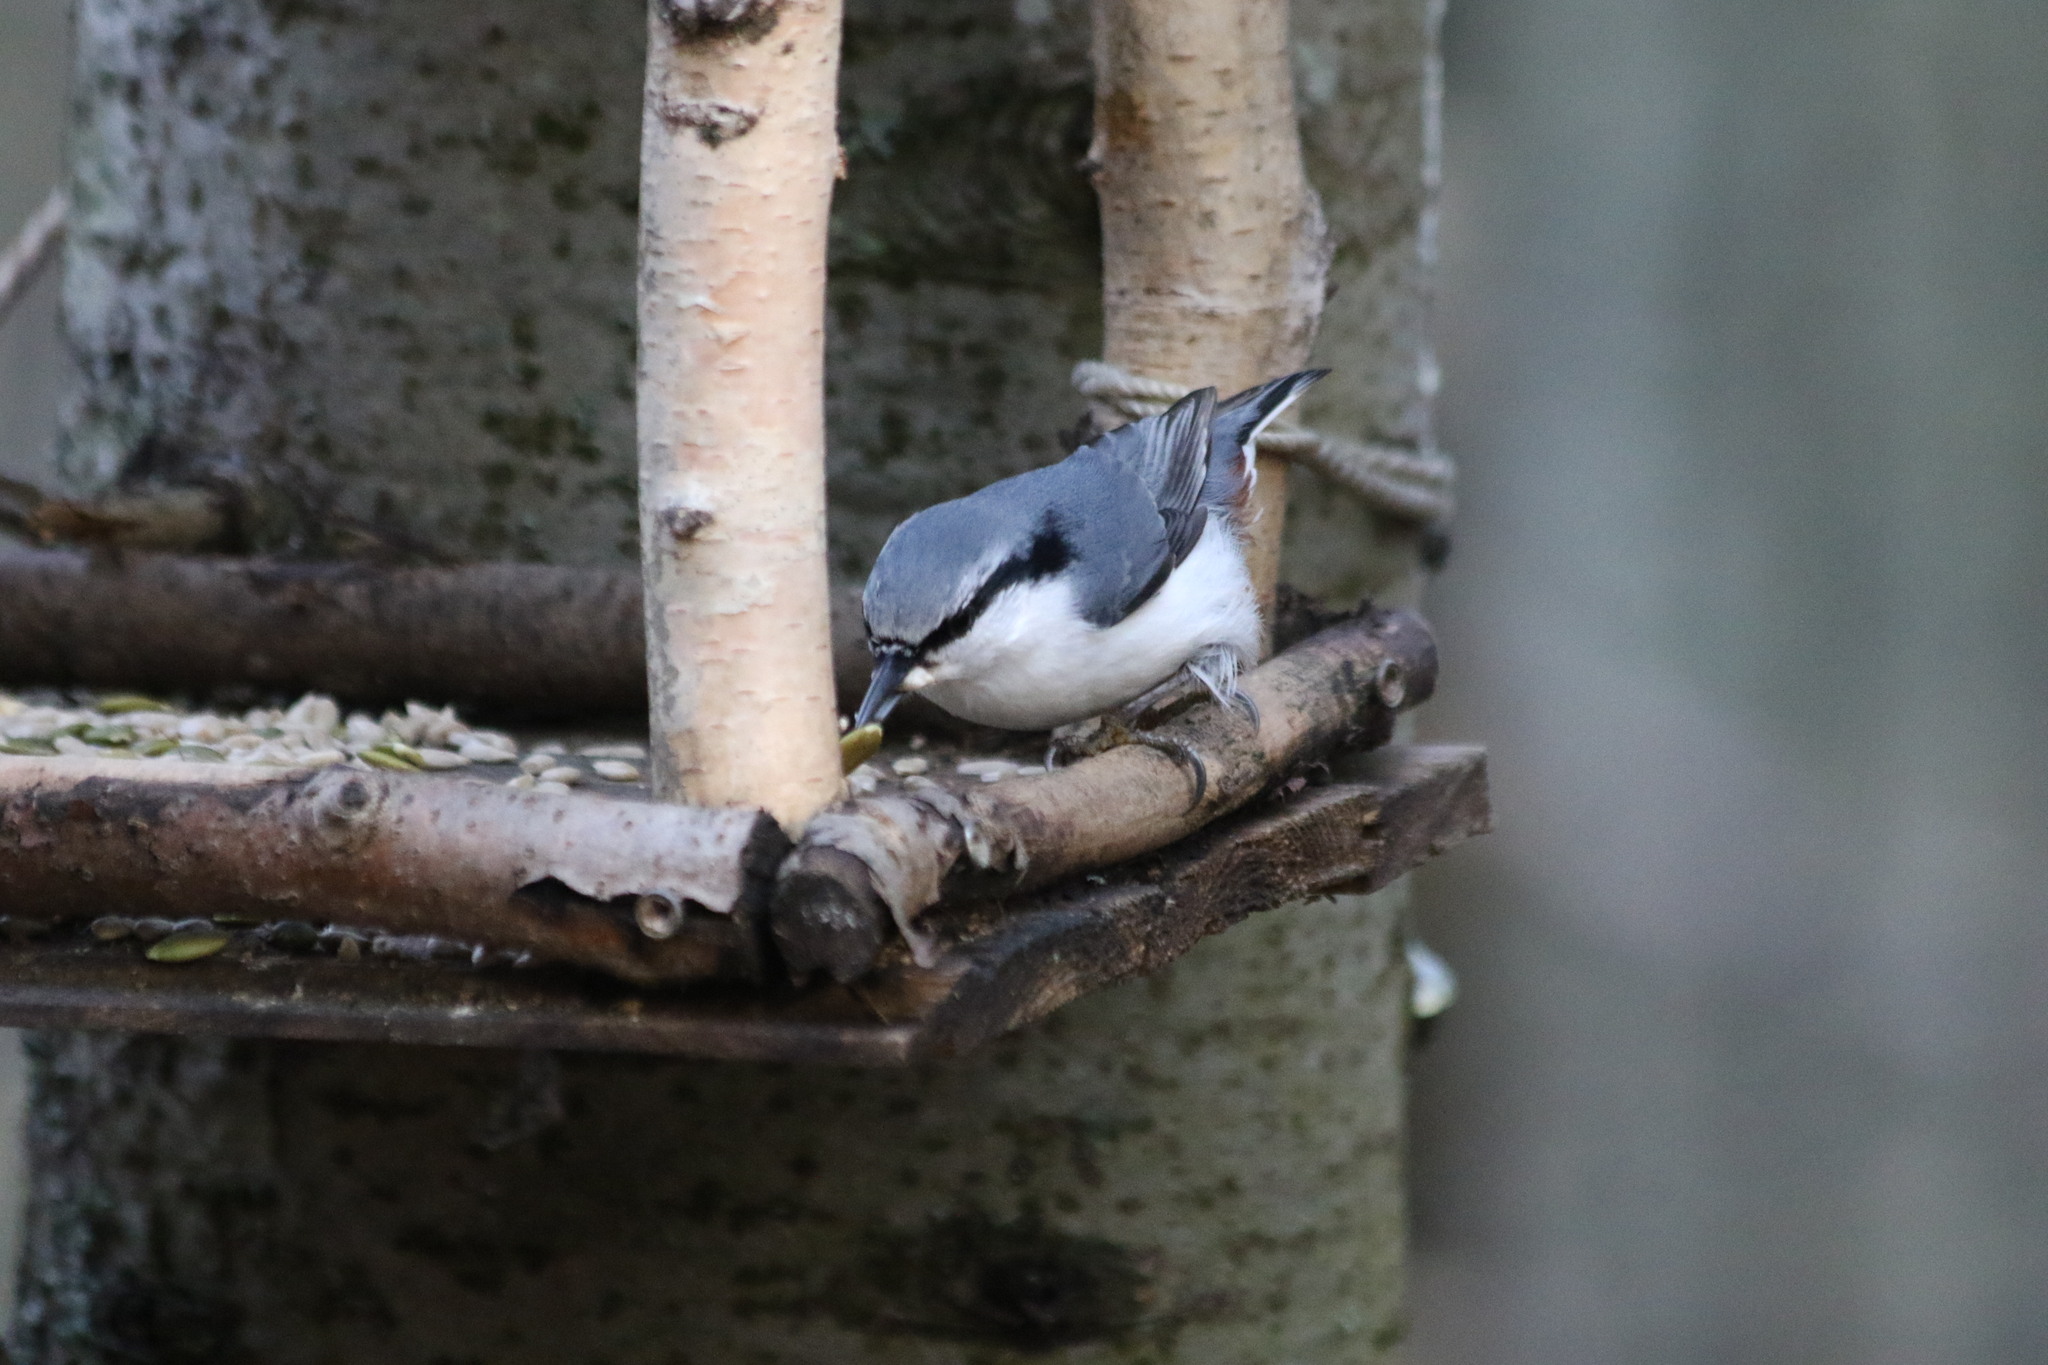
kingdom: Animalia
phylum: Chordata
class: Aves
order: Passeriformes
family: Sittidae
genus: Sitta
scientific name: Sitta europaea
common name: Eurasian nuthatch
